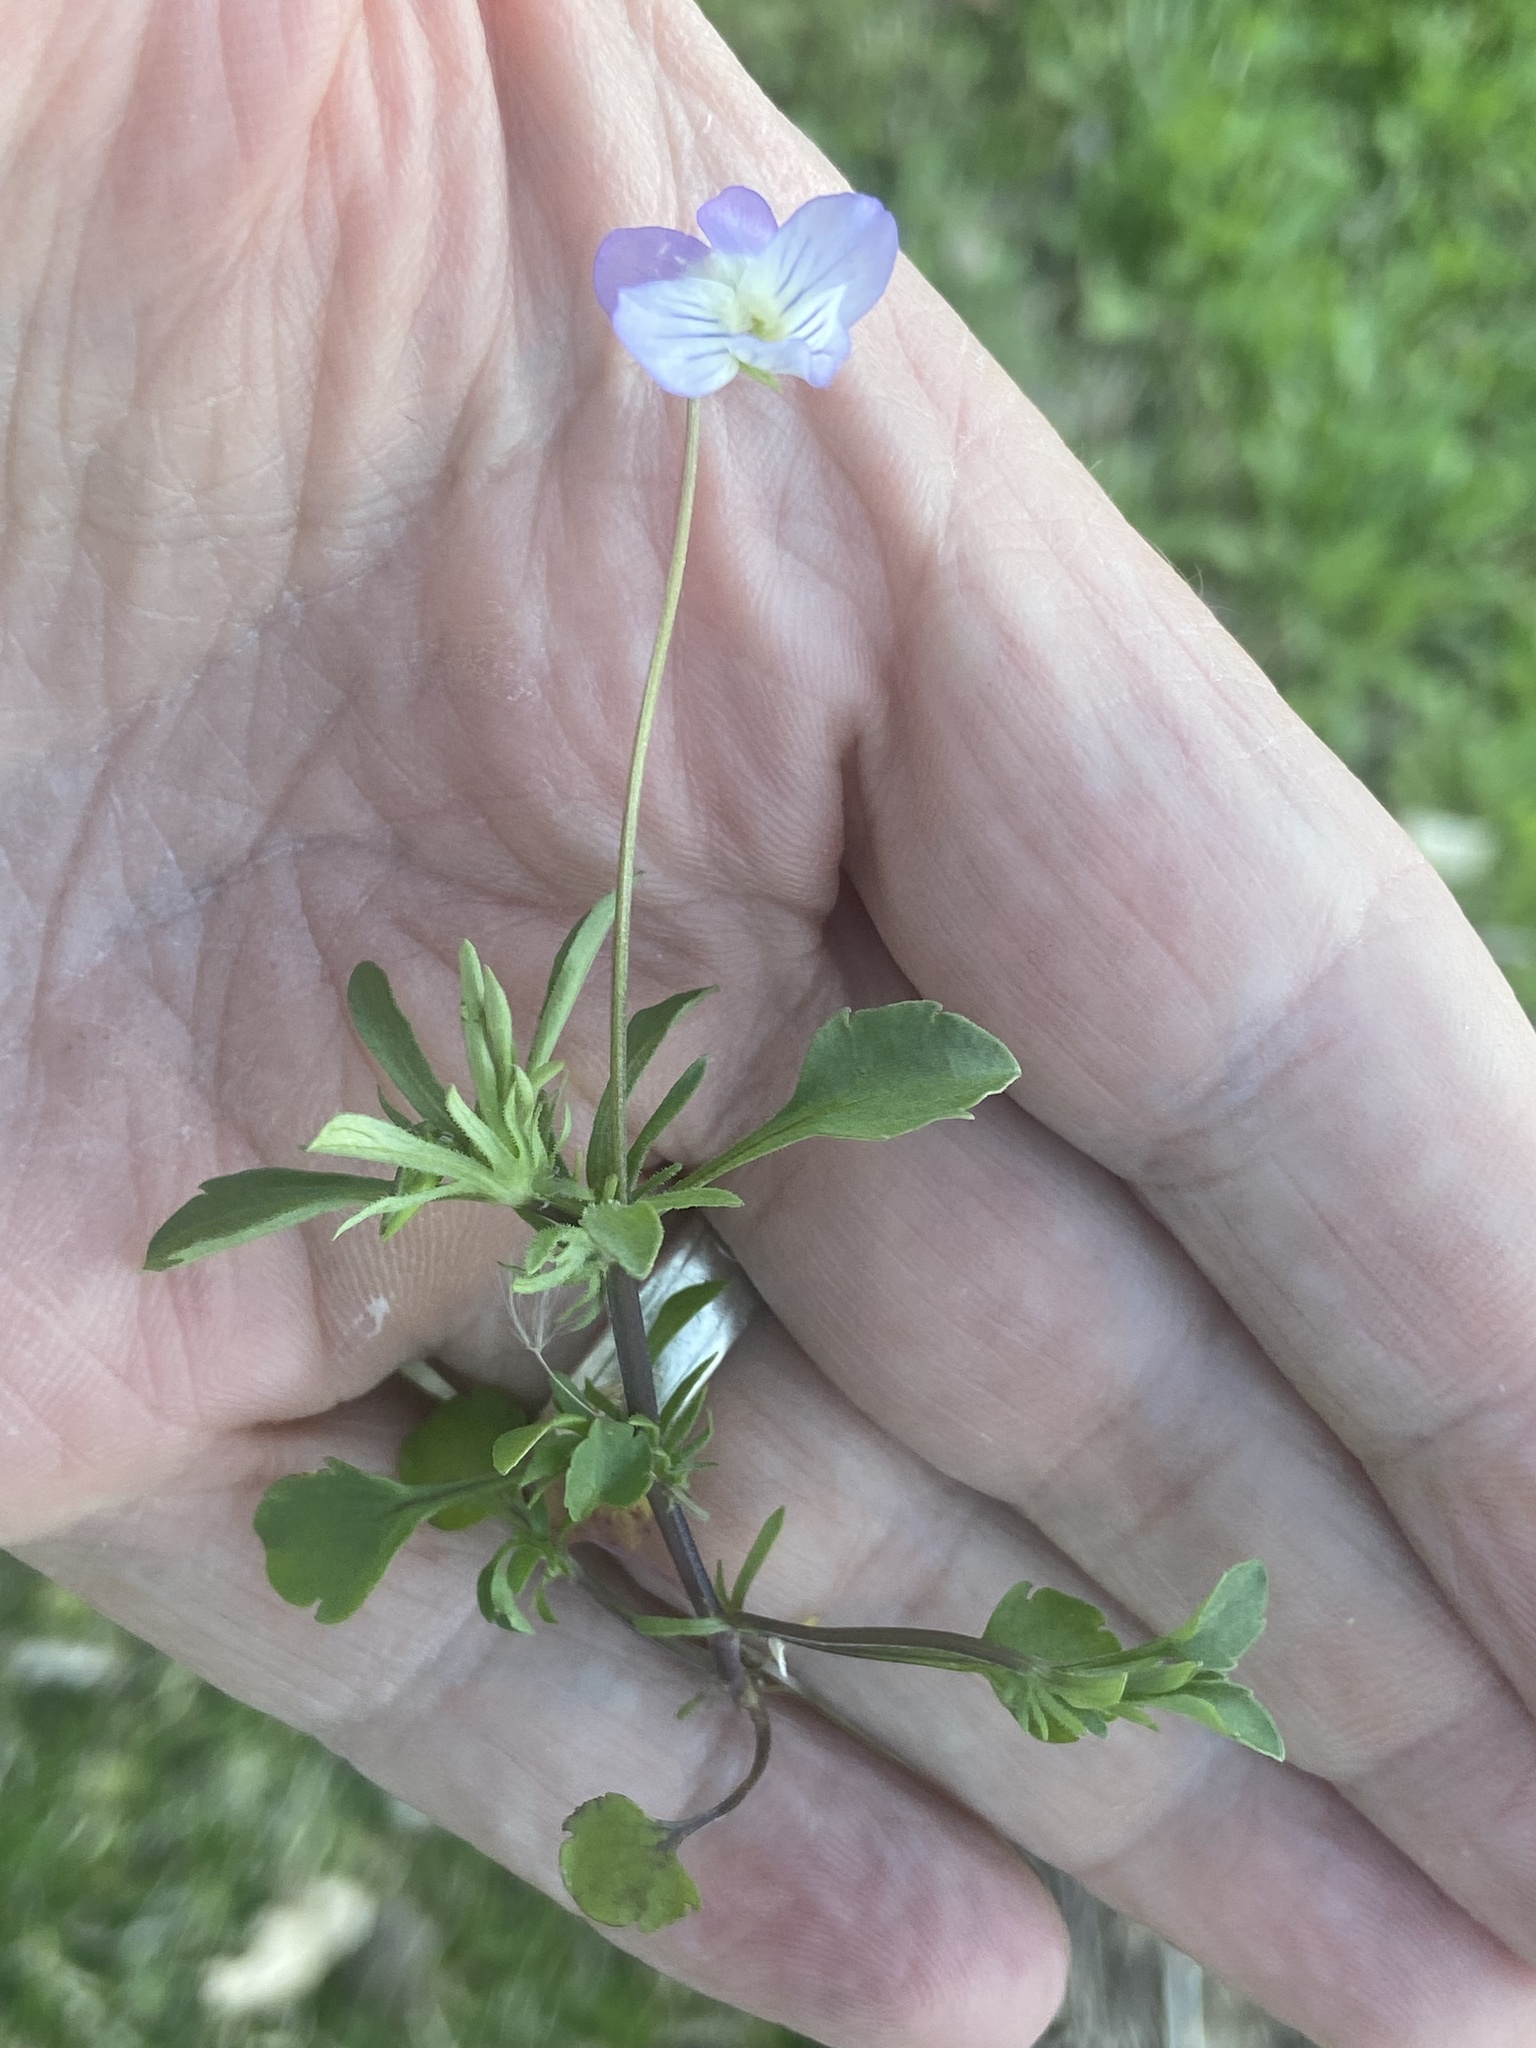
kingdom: Plantae
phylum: Tracheophyta
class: Magnoliopsida
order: Malpighiales
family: Violaceae
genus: Viola
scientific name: Viola rafinesquei
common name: American field pansy
